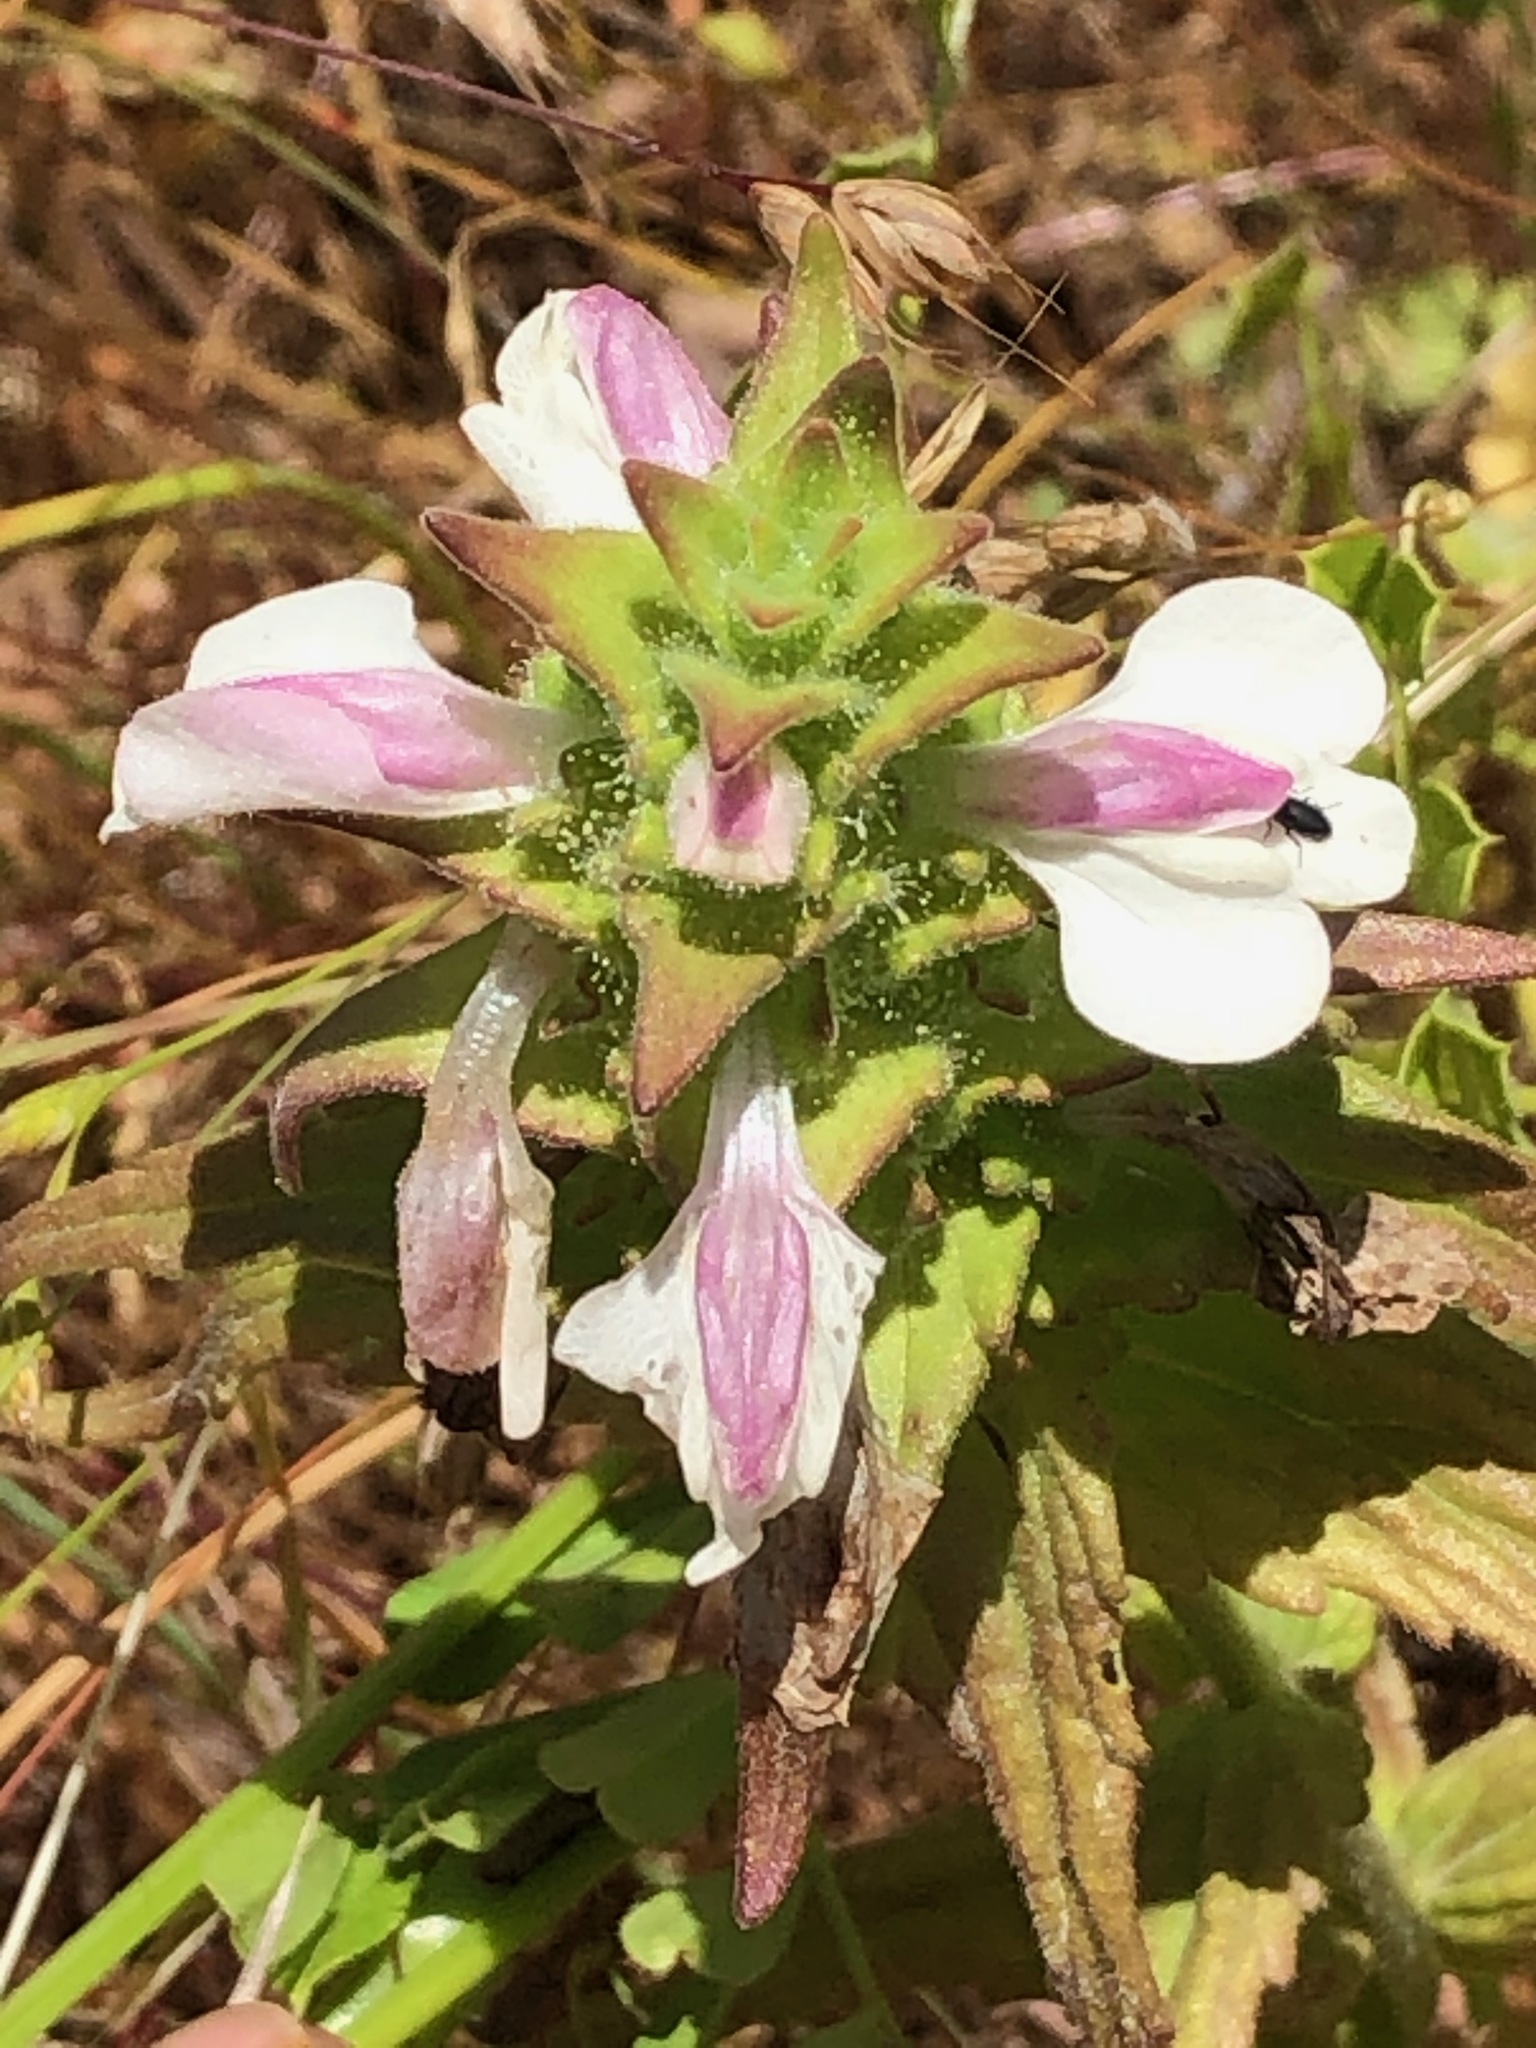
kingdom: Plantae
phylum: Tracheophyta
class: Magnoliopsida
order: Lamiales
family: Orobanchaceae
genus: Bellardia
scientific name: Bellardia trixago
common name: Mediterranean lineseed
